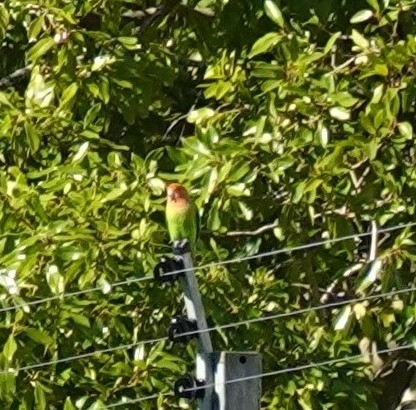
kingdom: Animalia
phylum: Chordata
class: Aves
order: Psittaciformes
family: Psittacidae
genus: Agapornis
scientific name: Agapornis roseicollis
